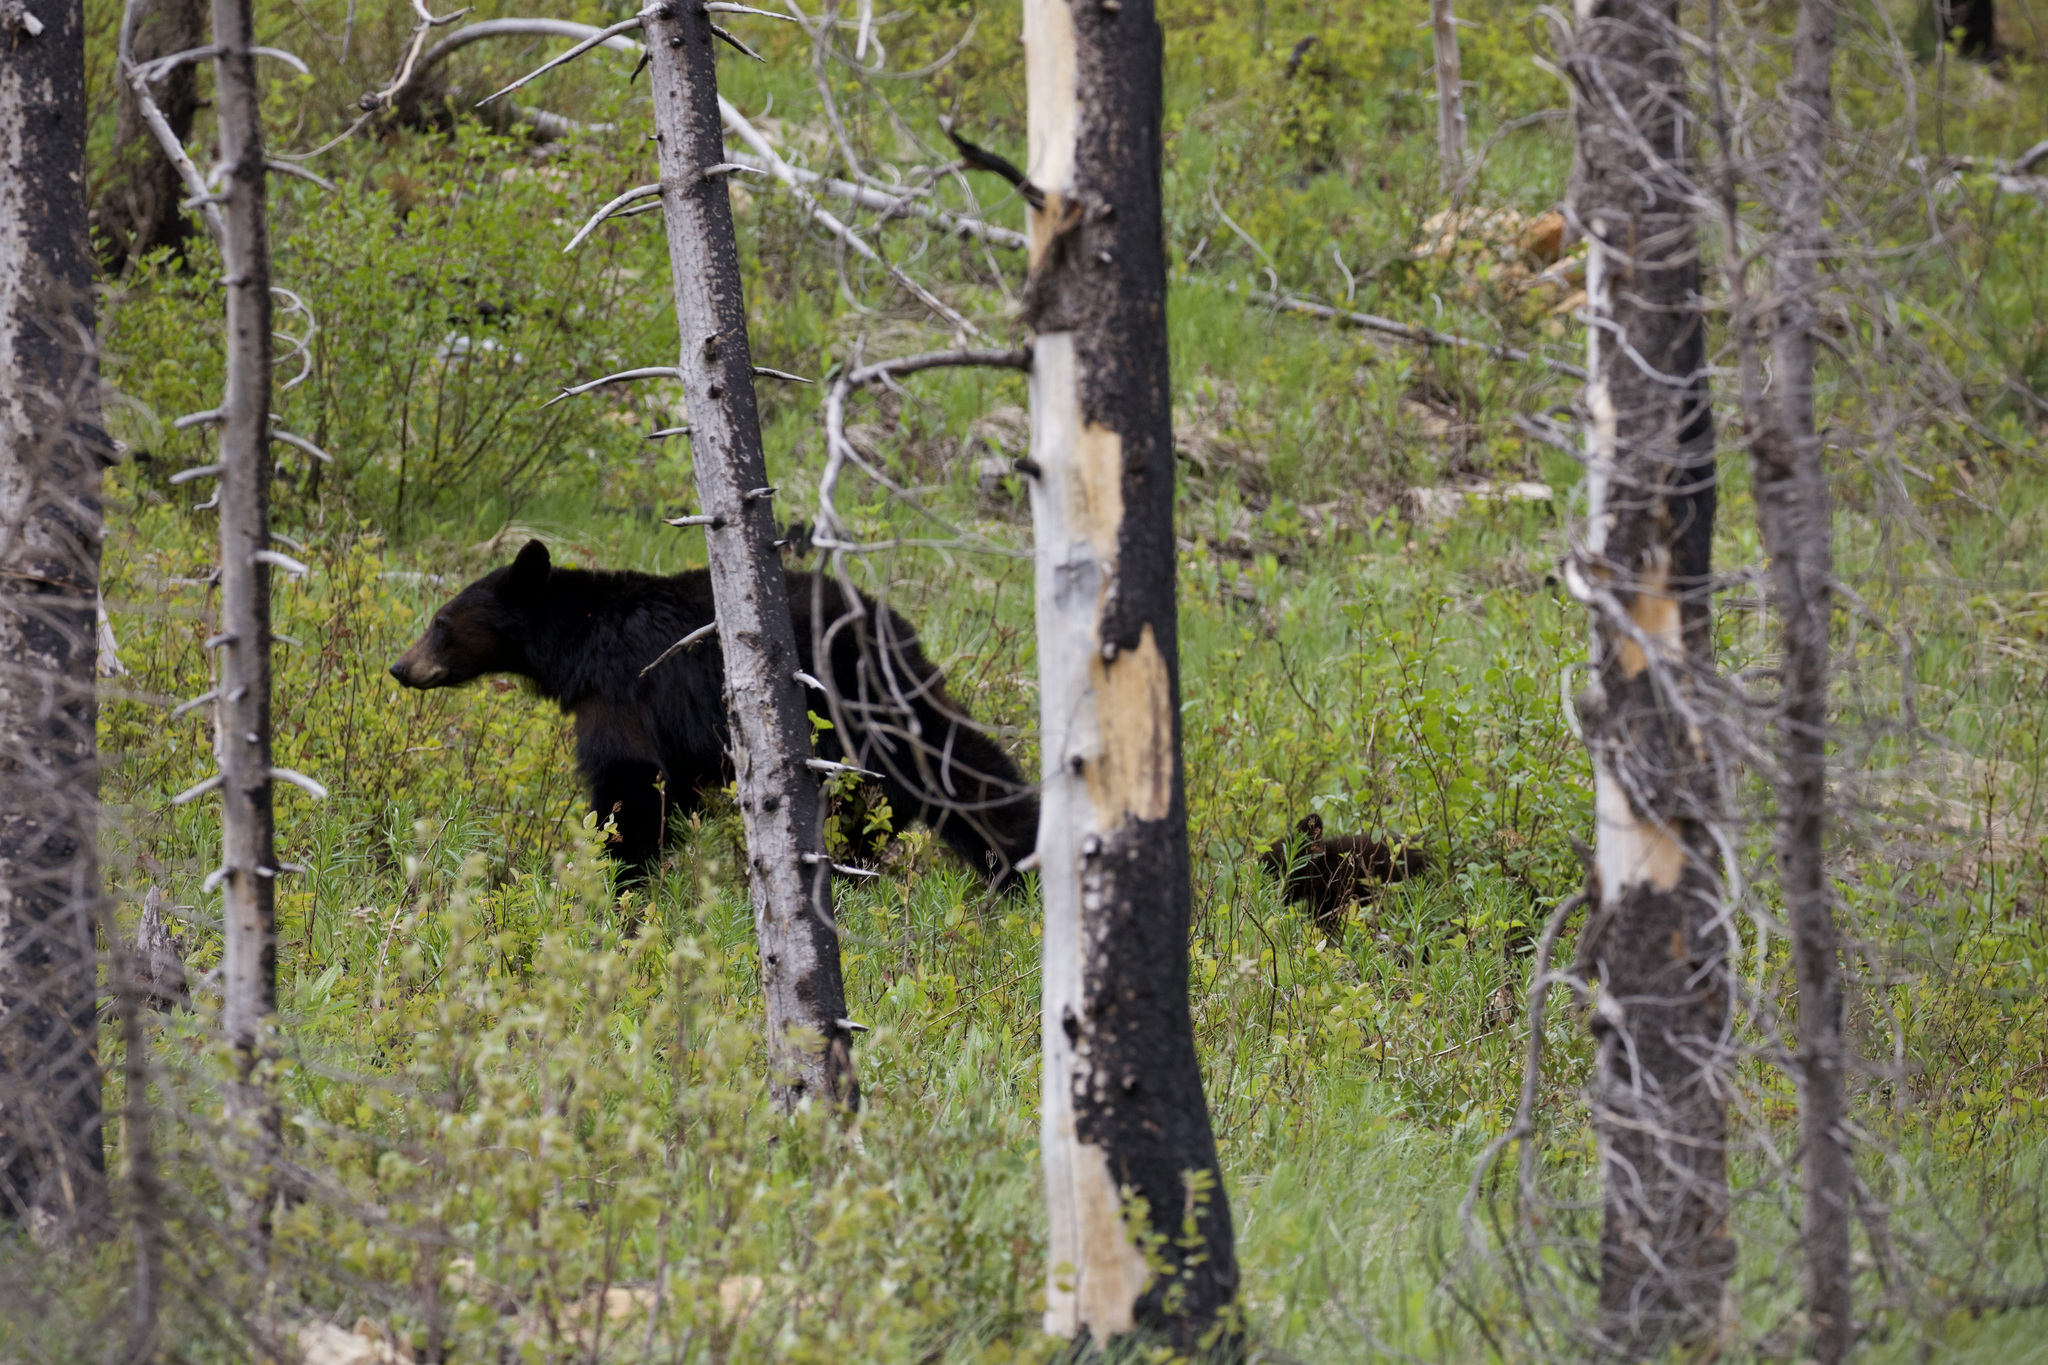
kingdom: Animalia
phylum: Chordata
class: Mammalia
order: Carnivora
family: Ursidae
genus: Ursus
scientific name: Ursus americanus
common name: American black bear
